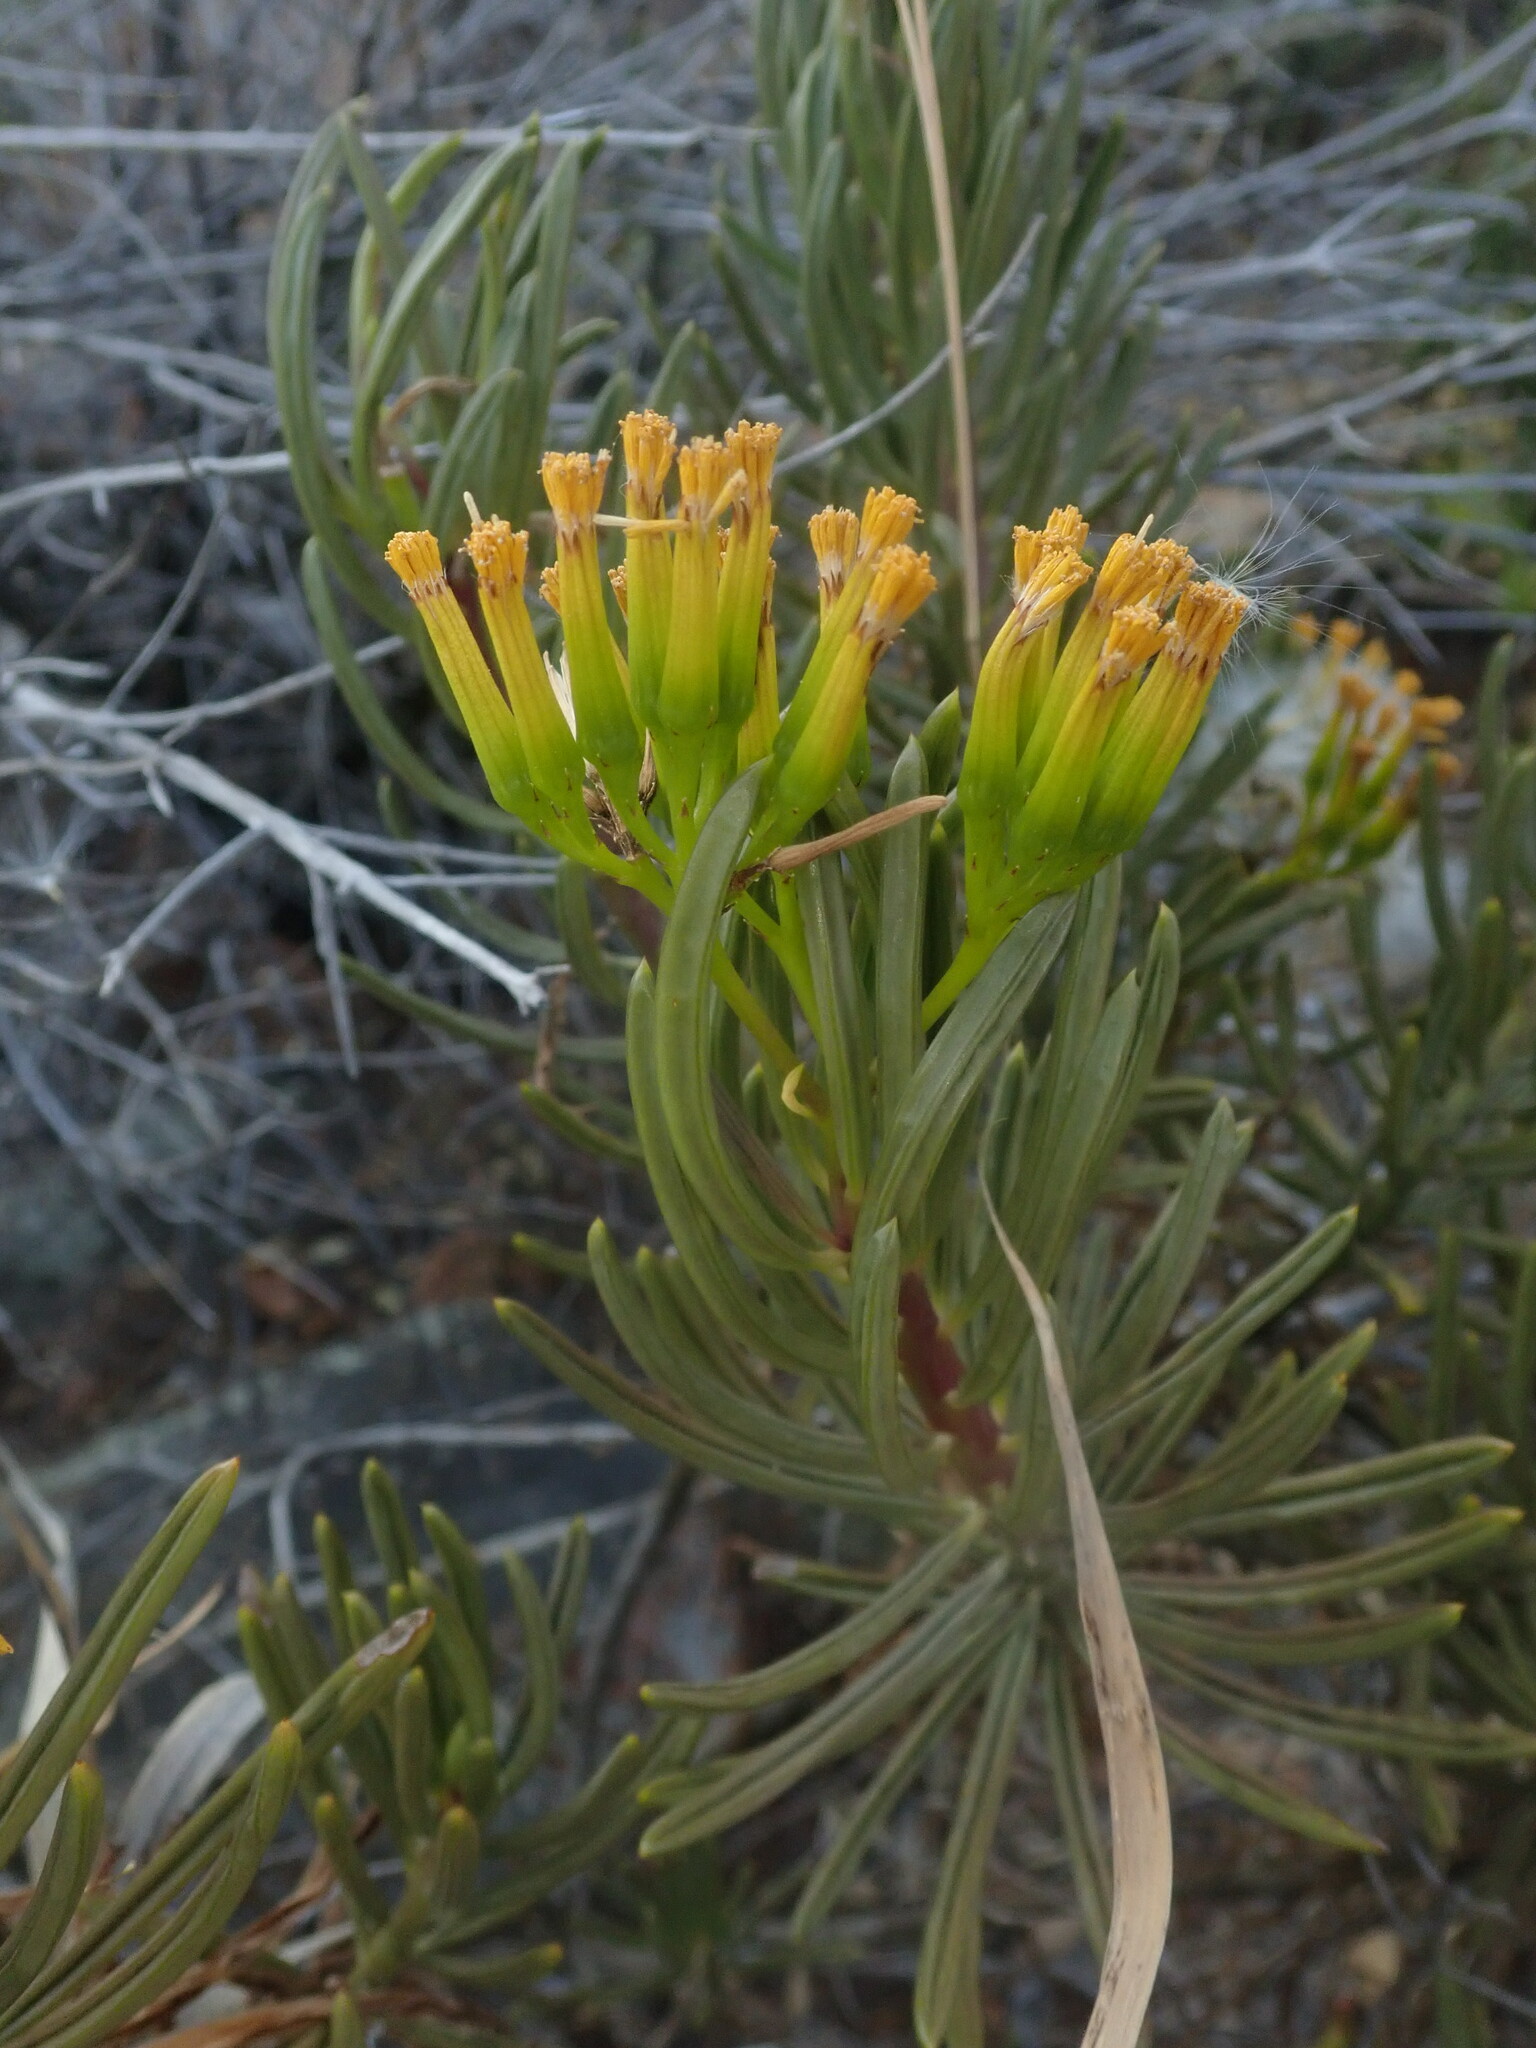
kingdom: Plantae
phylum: Tracheophyta
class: Magnoliopsida
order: Asterales
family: Asteraceae
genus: Kleinia
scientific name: Kleinia barbertonica
